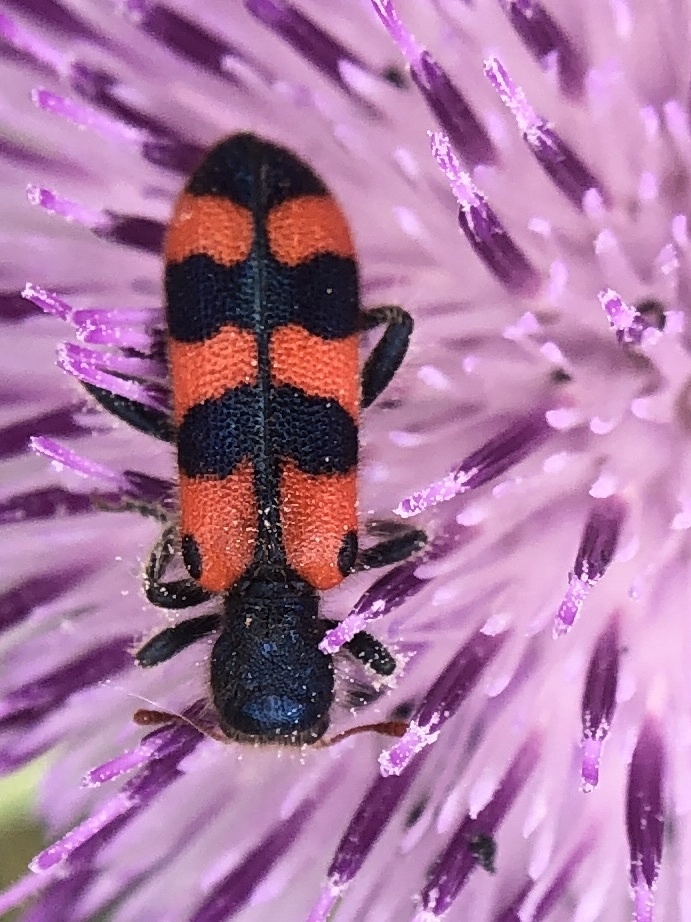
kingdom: Animalia
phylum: Arthropoda
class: Insecta
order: Coleoptera
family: Cleridae
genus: Trichodes
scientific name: Trichodes leucopsideus
